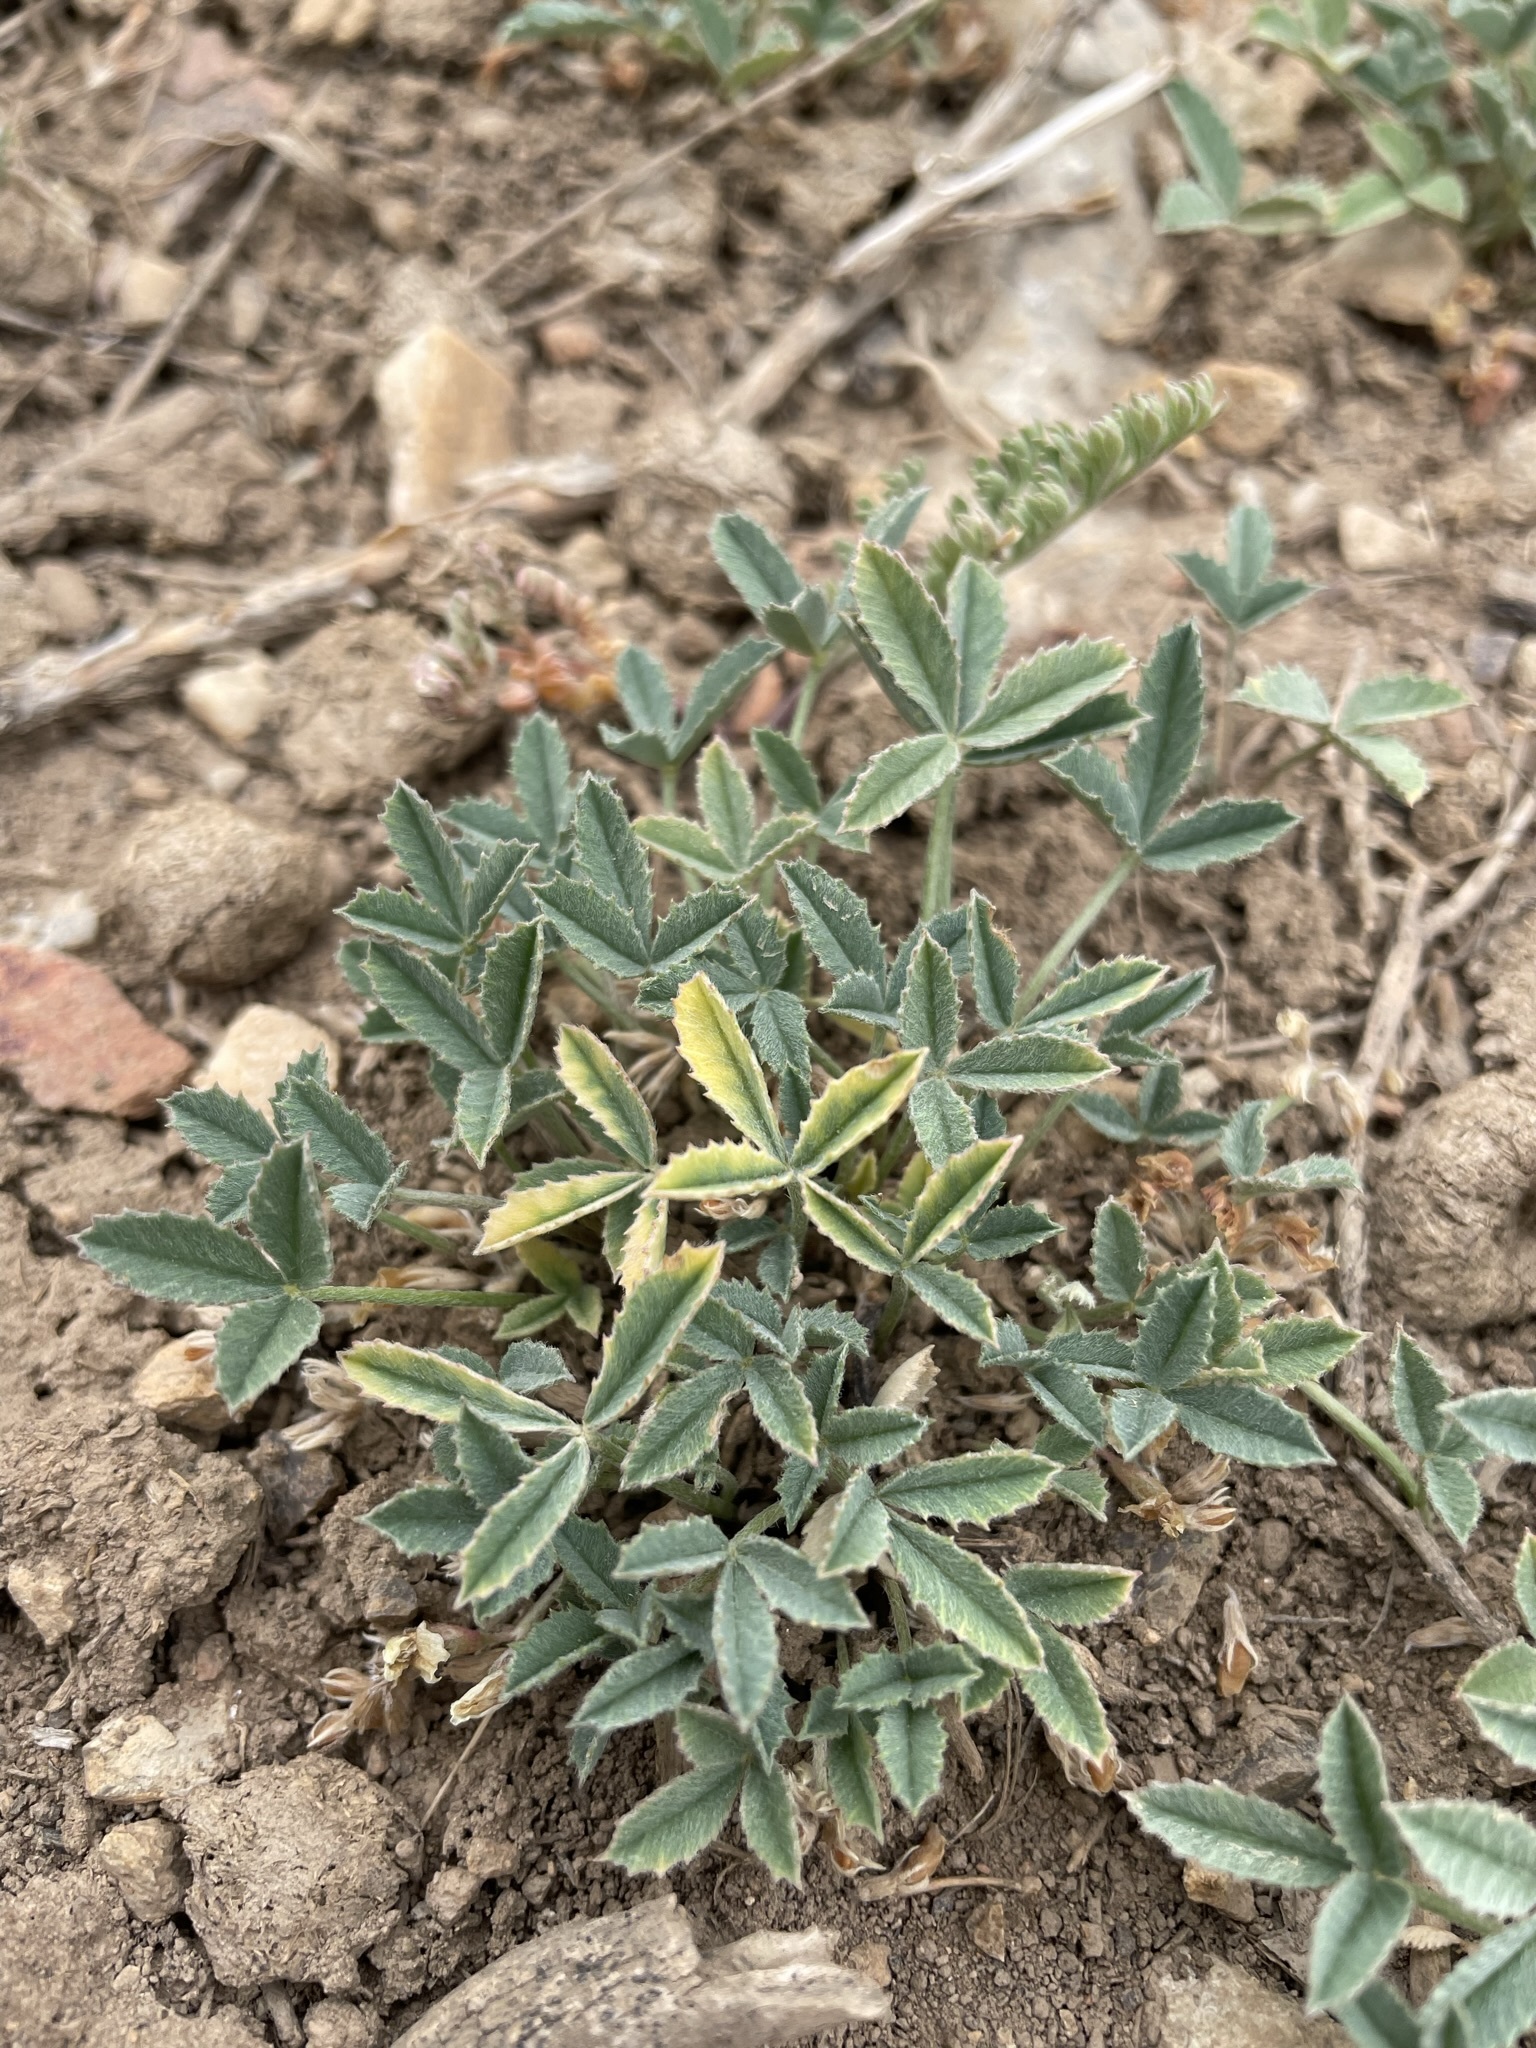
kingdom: Plantae
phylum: Tracheophyta
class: Magnoliopsida
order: Fabales
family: Fabaceae
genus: Trifolium
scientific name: Trifolium gymnocarpon
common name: Tufted clover
